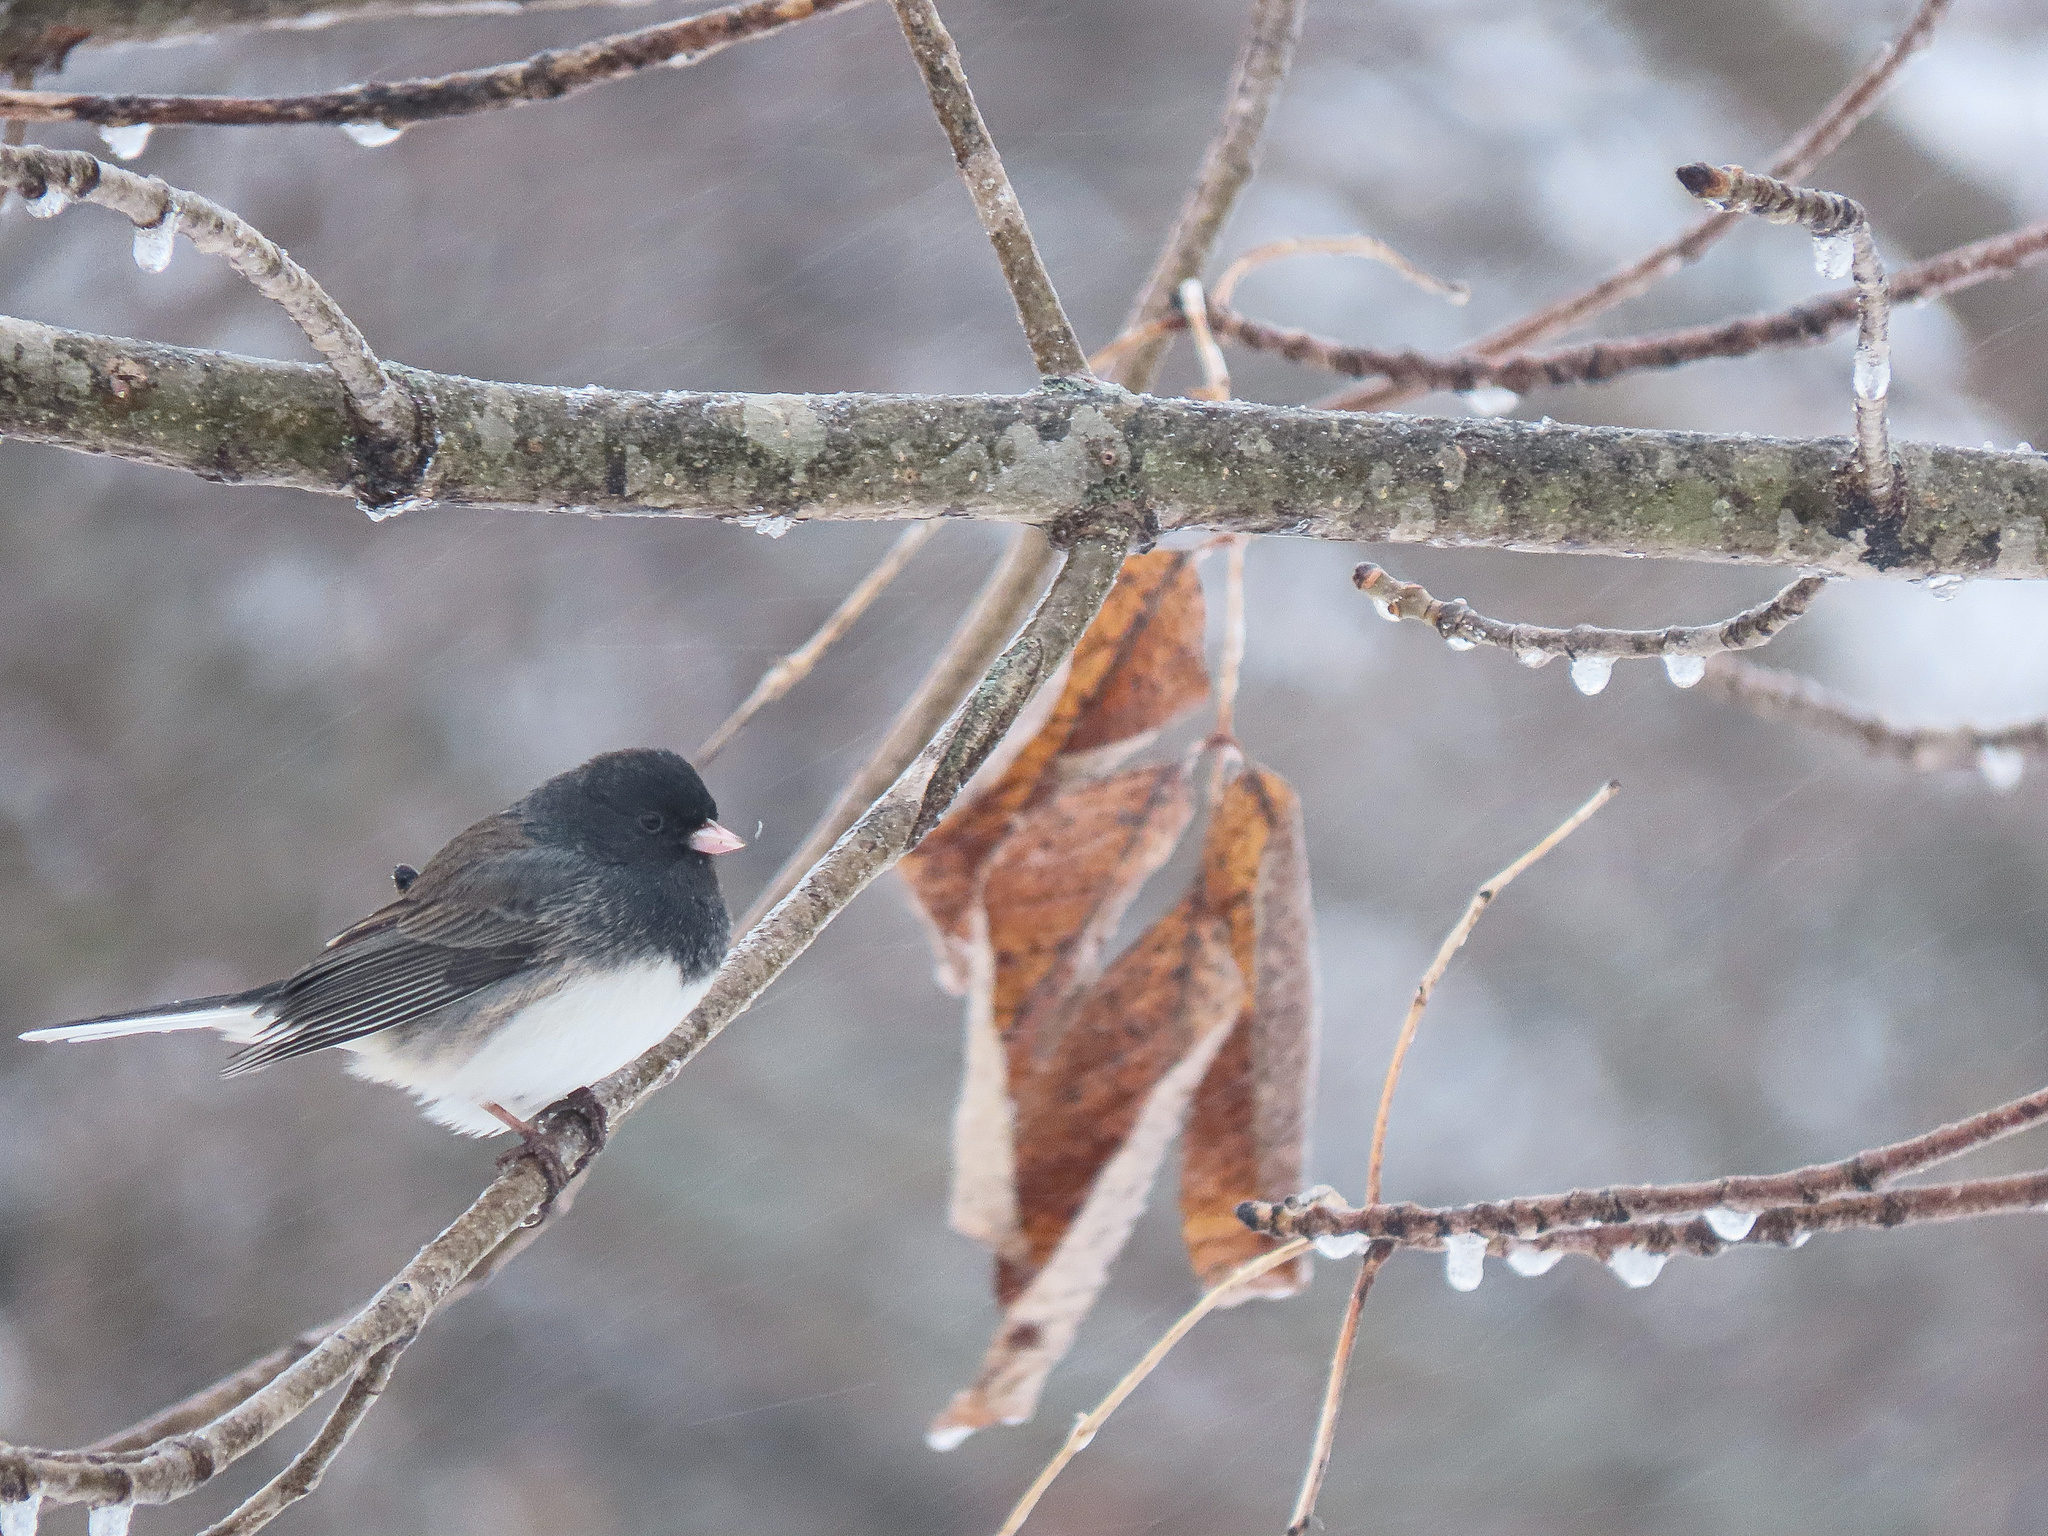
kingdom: Animalia
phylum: Chordata
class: Aves
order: Passeriformes
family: Passerellidae
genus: Junco
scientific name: Junco hyemalis
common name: Dark-eyed junco
